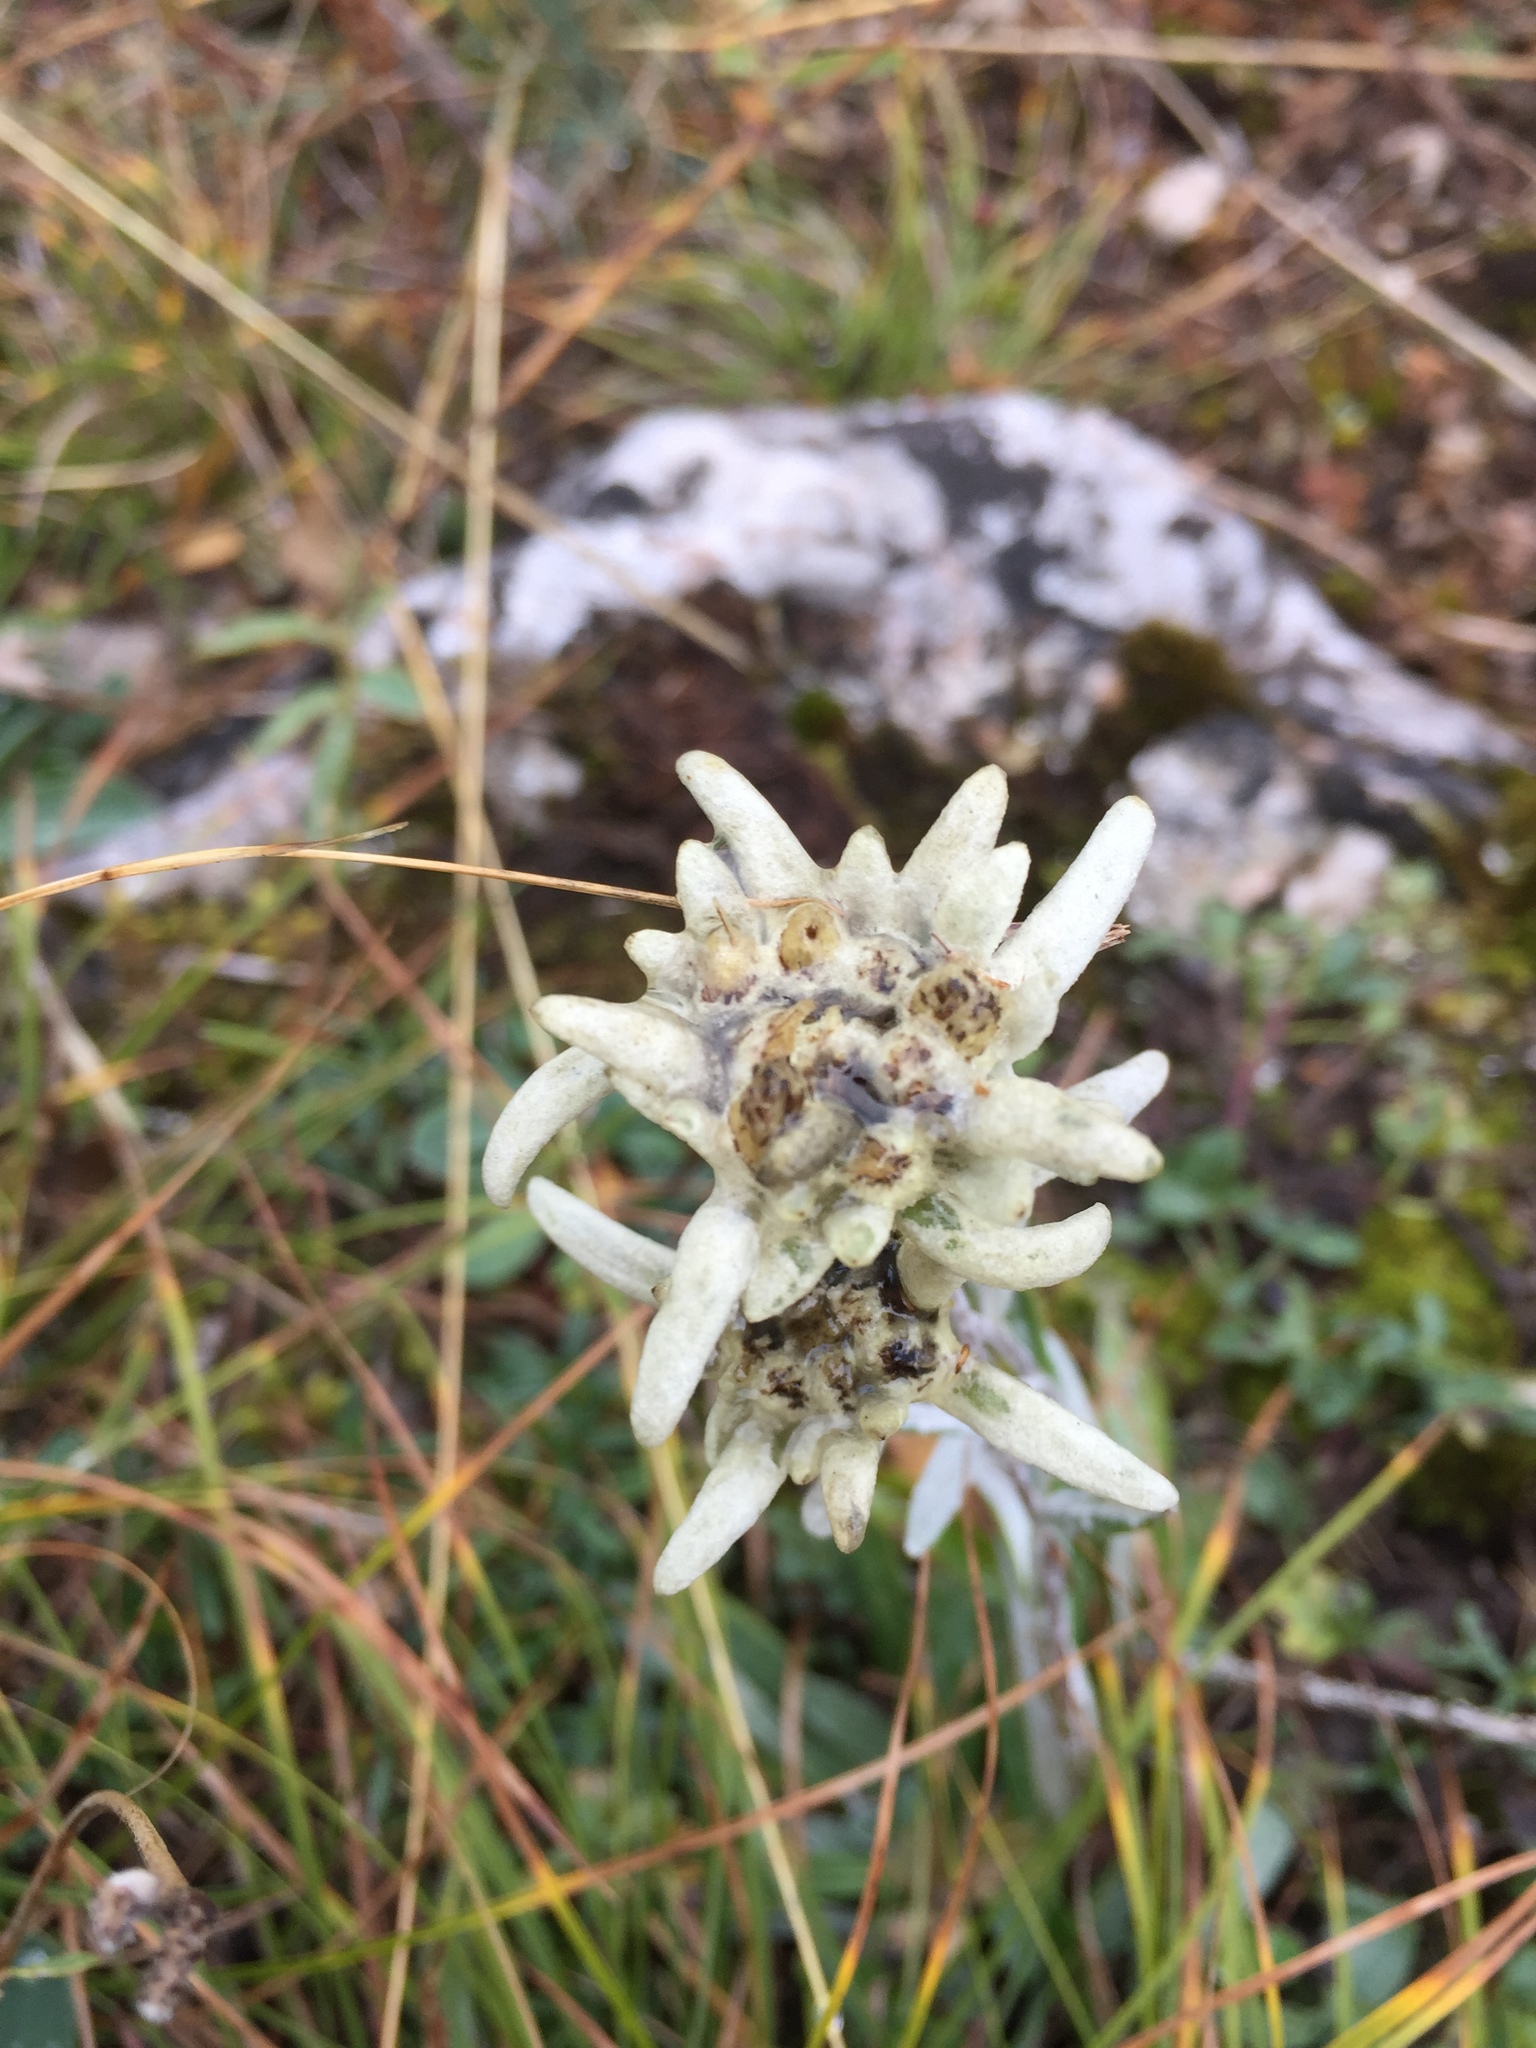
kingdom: Plantae
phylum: Tracheophyta
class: Magnoliopsida
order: Asterales
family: Asteraceae
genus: Leontopodium
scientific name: Leontopodium nivale
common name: Edelweiss
